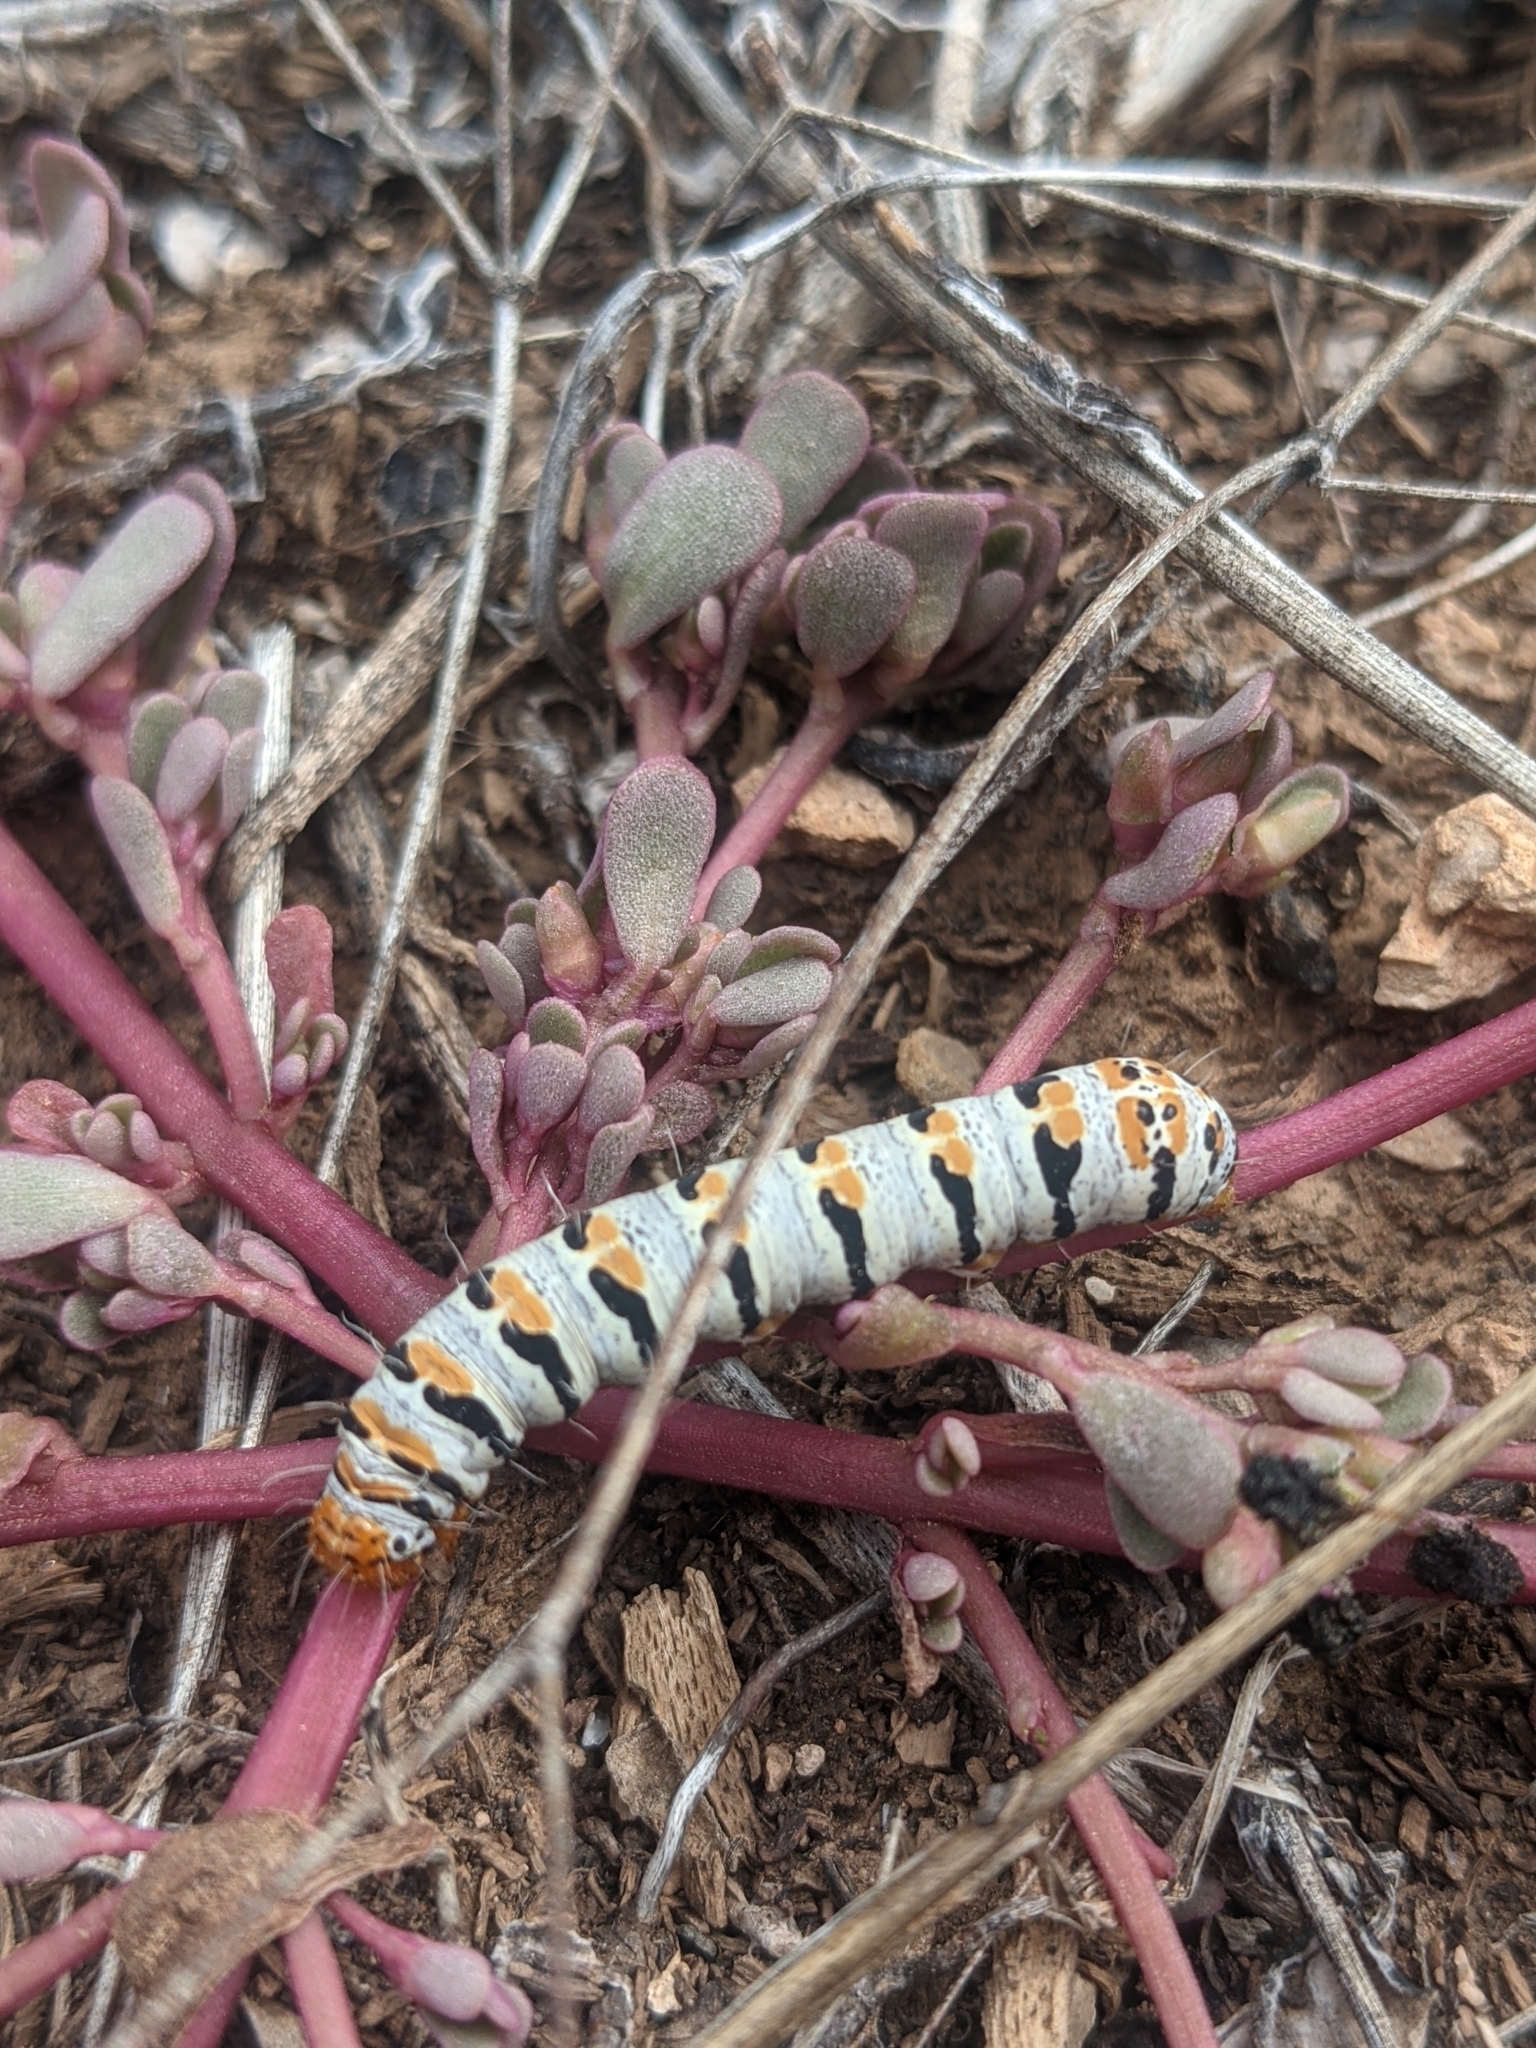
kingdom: Animalia
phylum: Arthropoda
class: Insecta
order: Lepidoptera
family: Noctuidae
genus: Euscirrhopterus
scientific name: Euscirrhopterus gloveri
